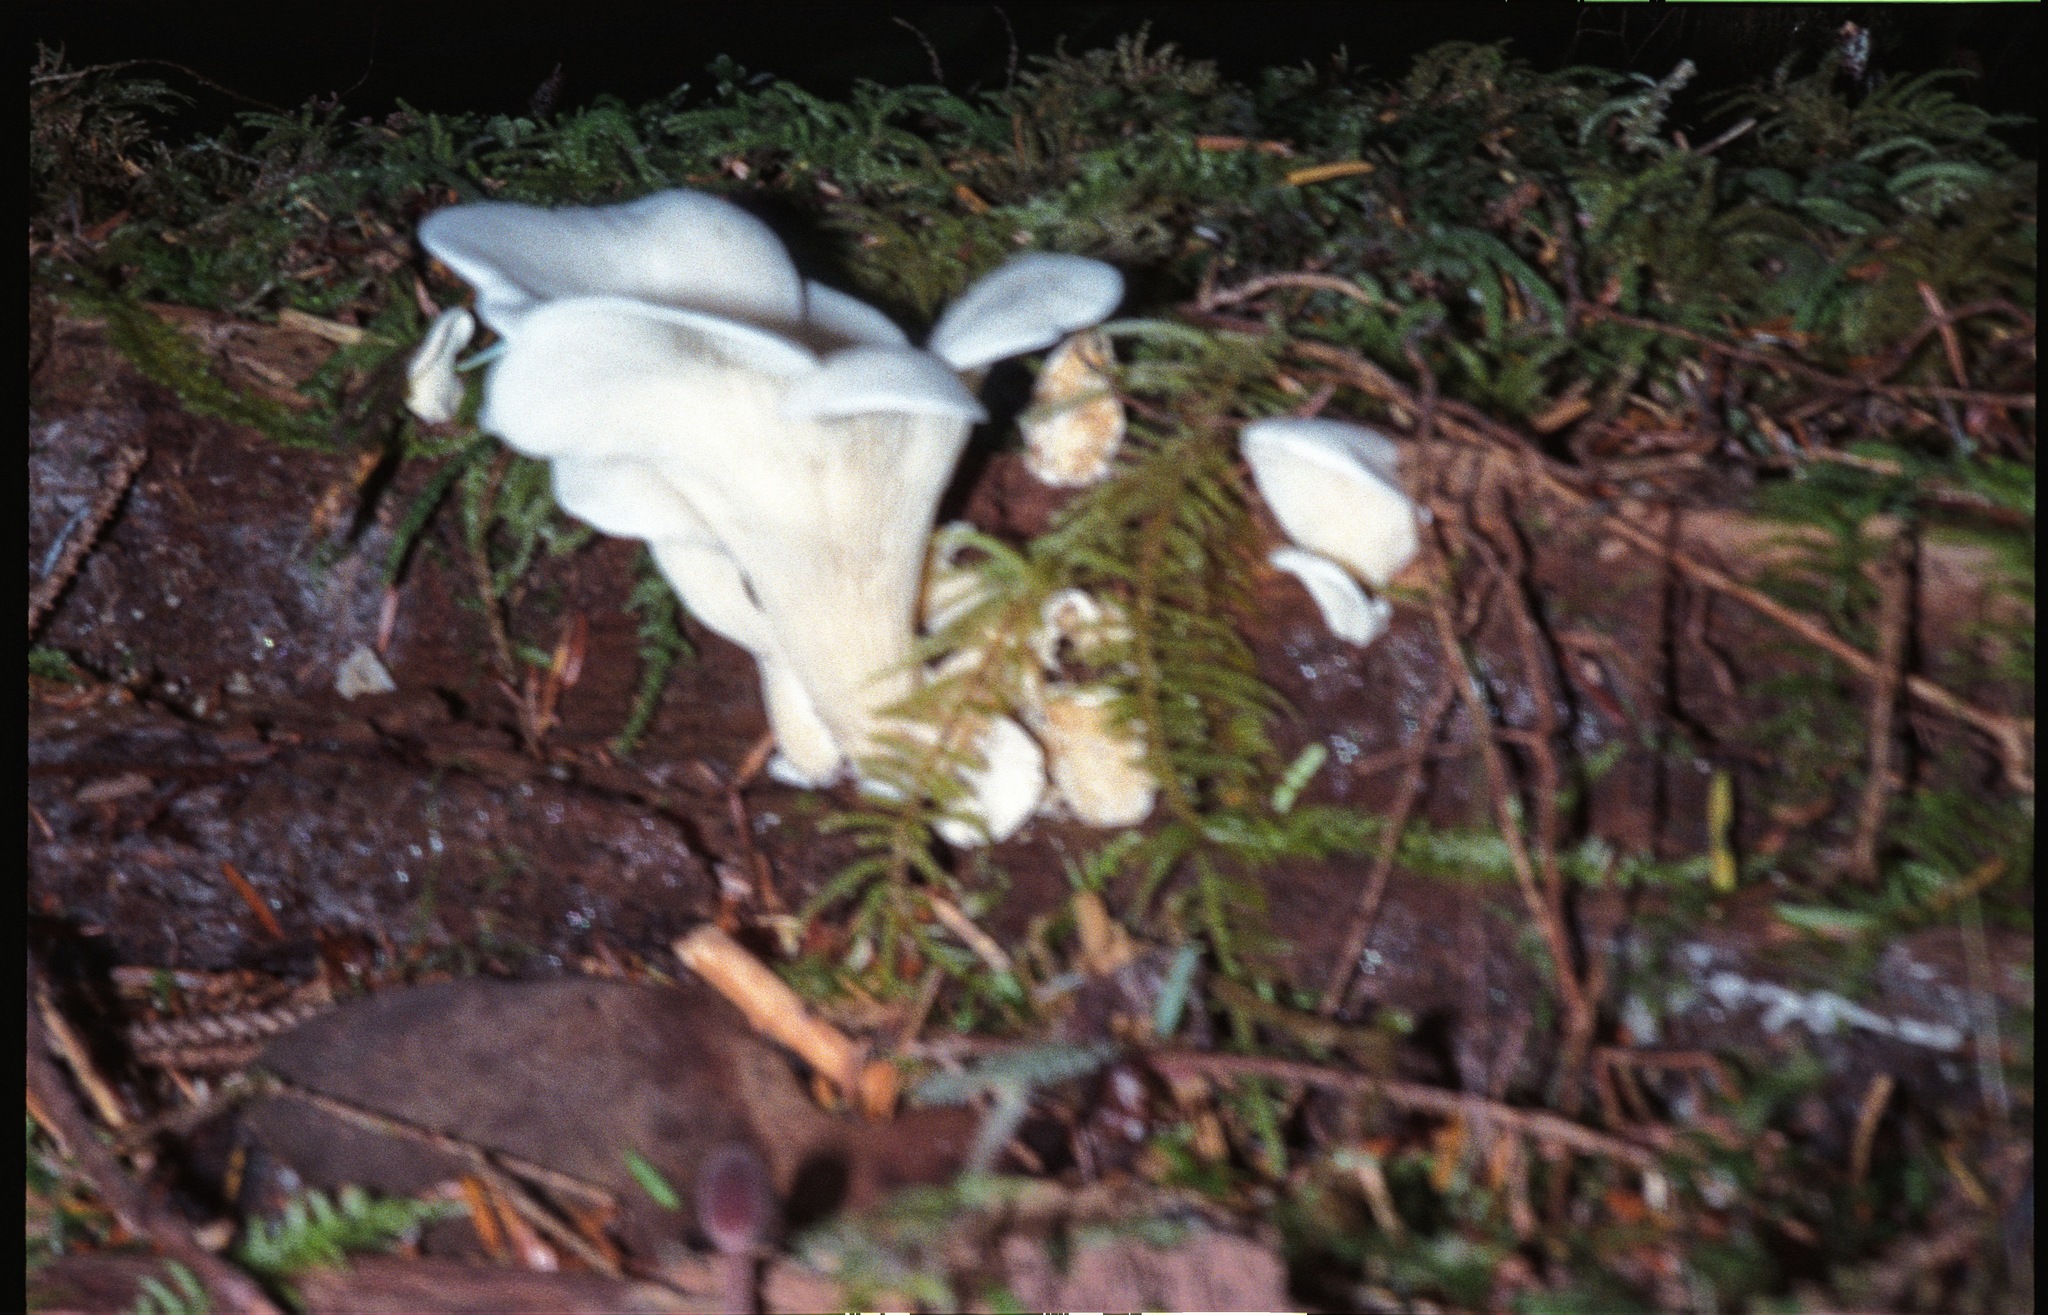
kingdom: Fungi
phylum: Basidiomycota
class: Agaricomycetes
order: Agaricales
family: Marasmiaceae
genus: Pleurocybella
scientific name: Pleurocybella porrigens
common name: Angel's wings
